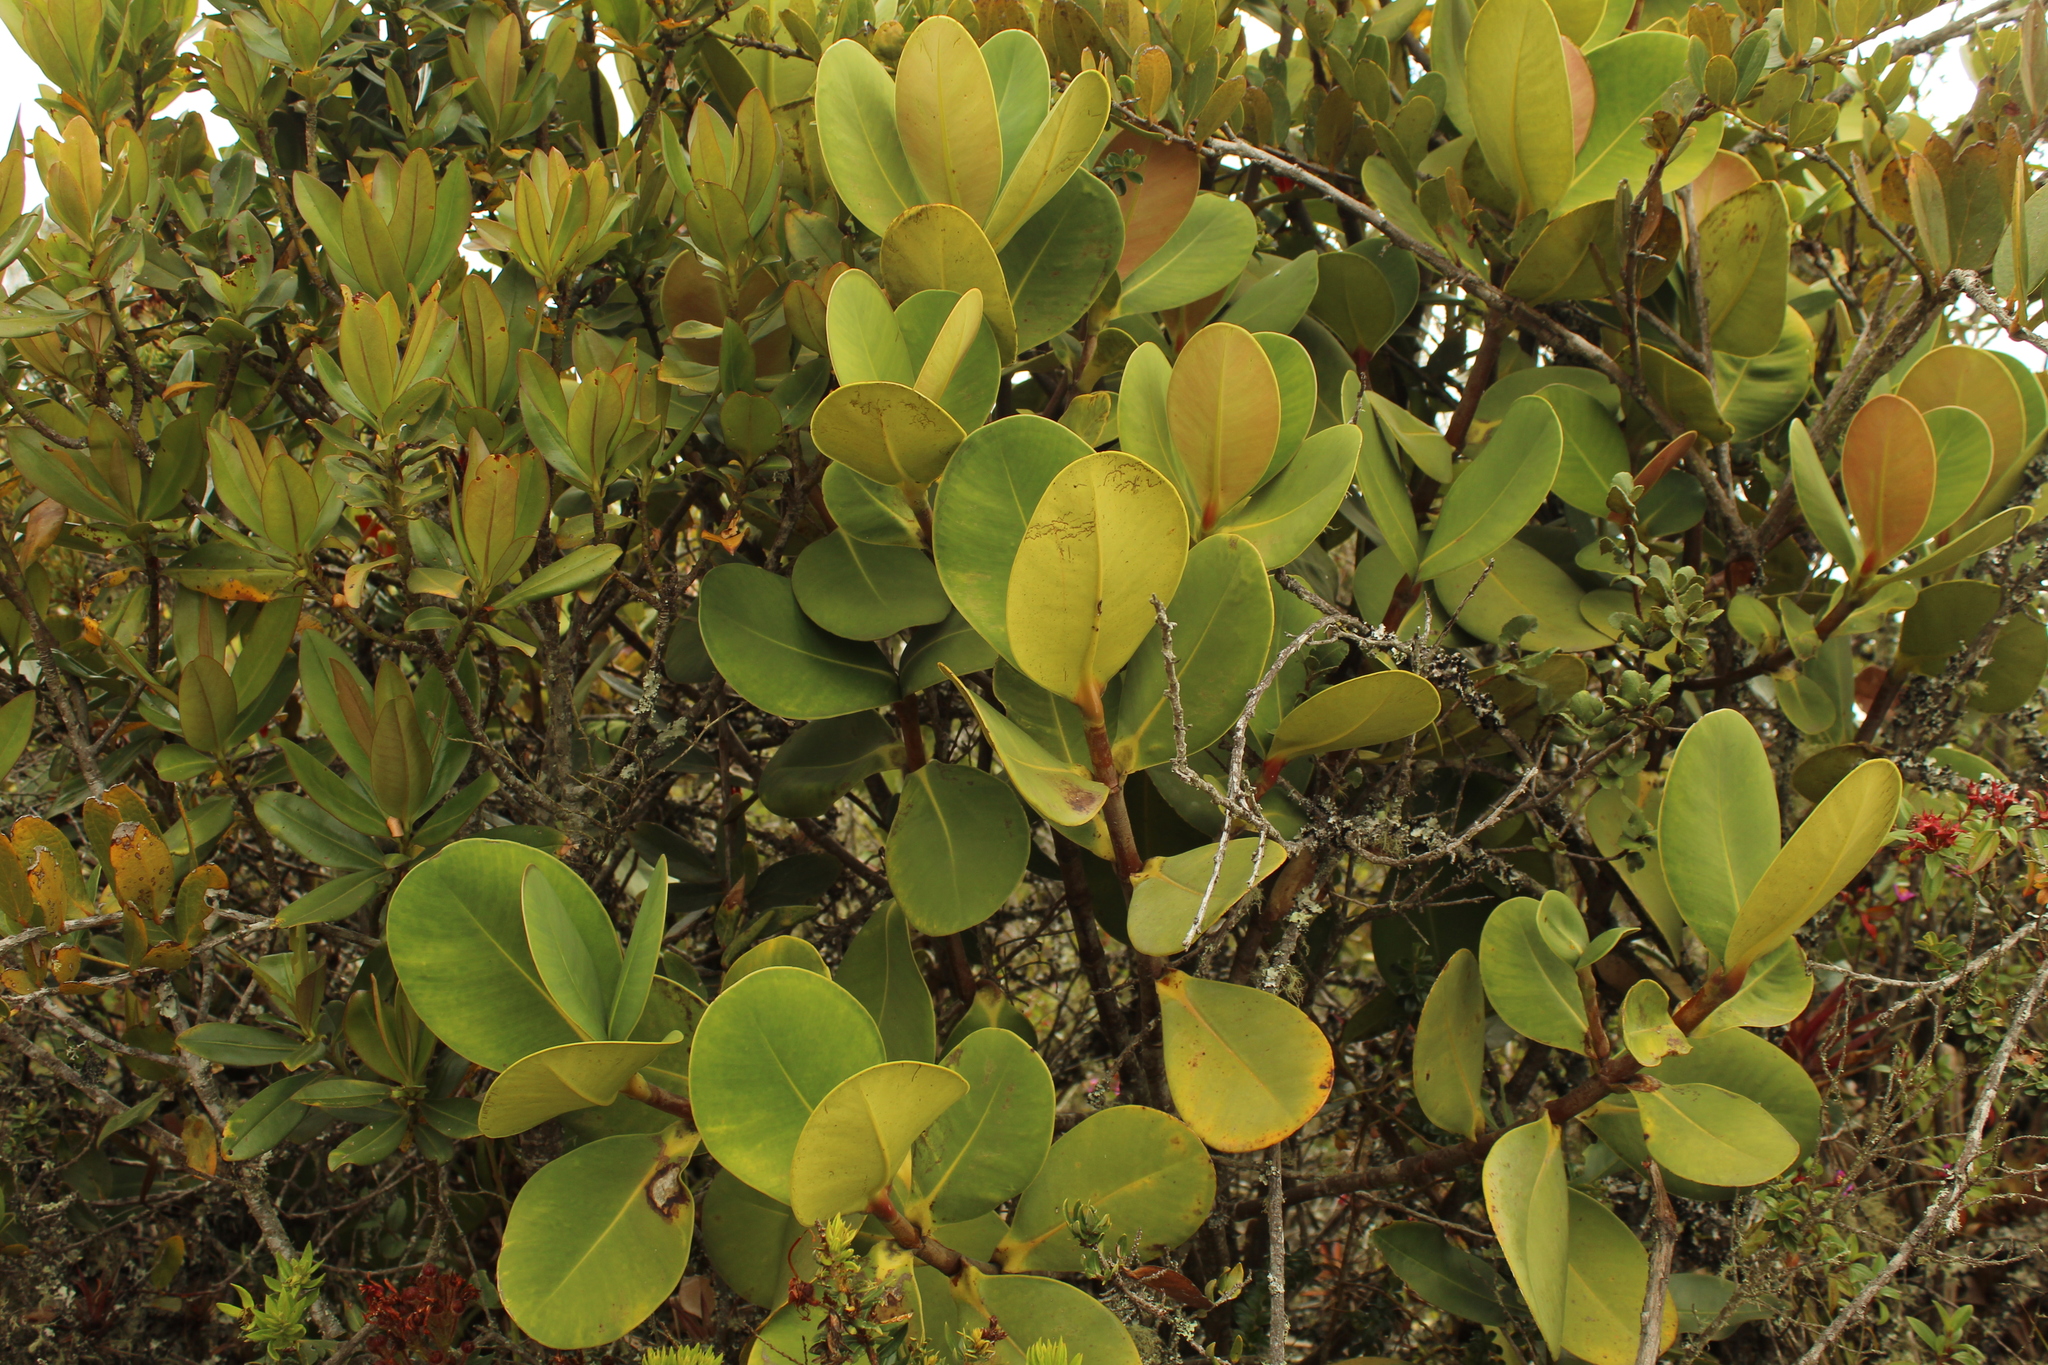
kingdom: Plantae
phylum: Tracheophyta
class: Magnoliopsida
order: Malpighiales
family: Clusiaceae
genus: Clusia
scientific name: Clusia multiflora
